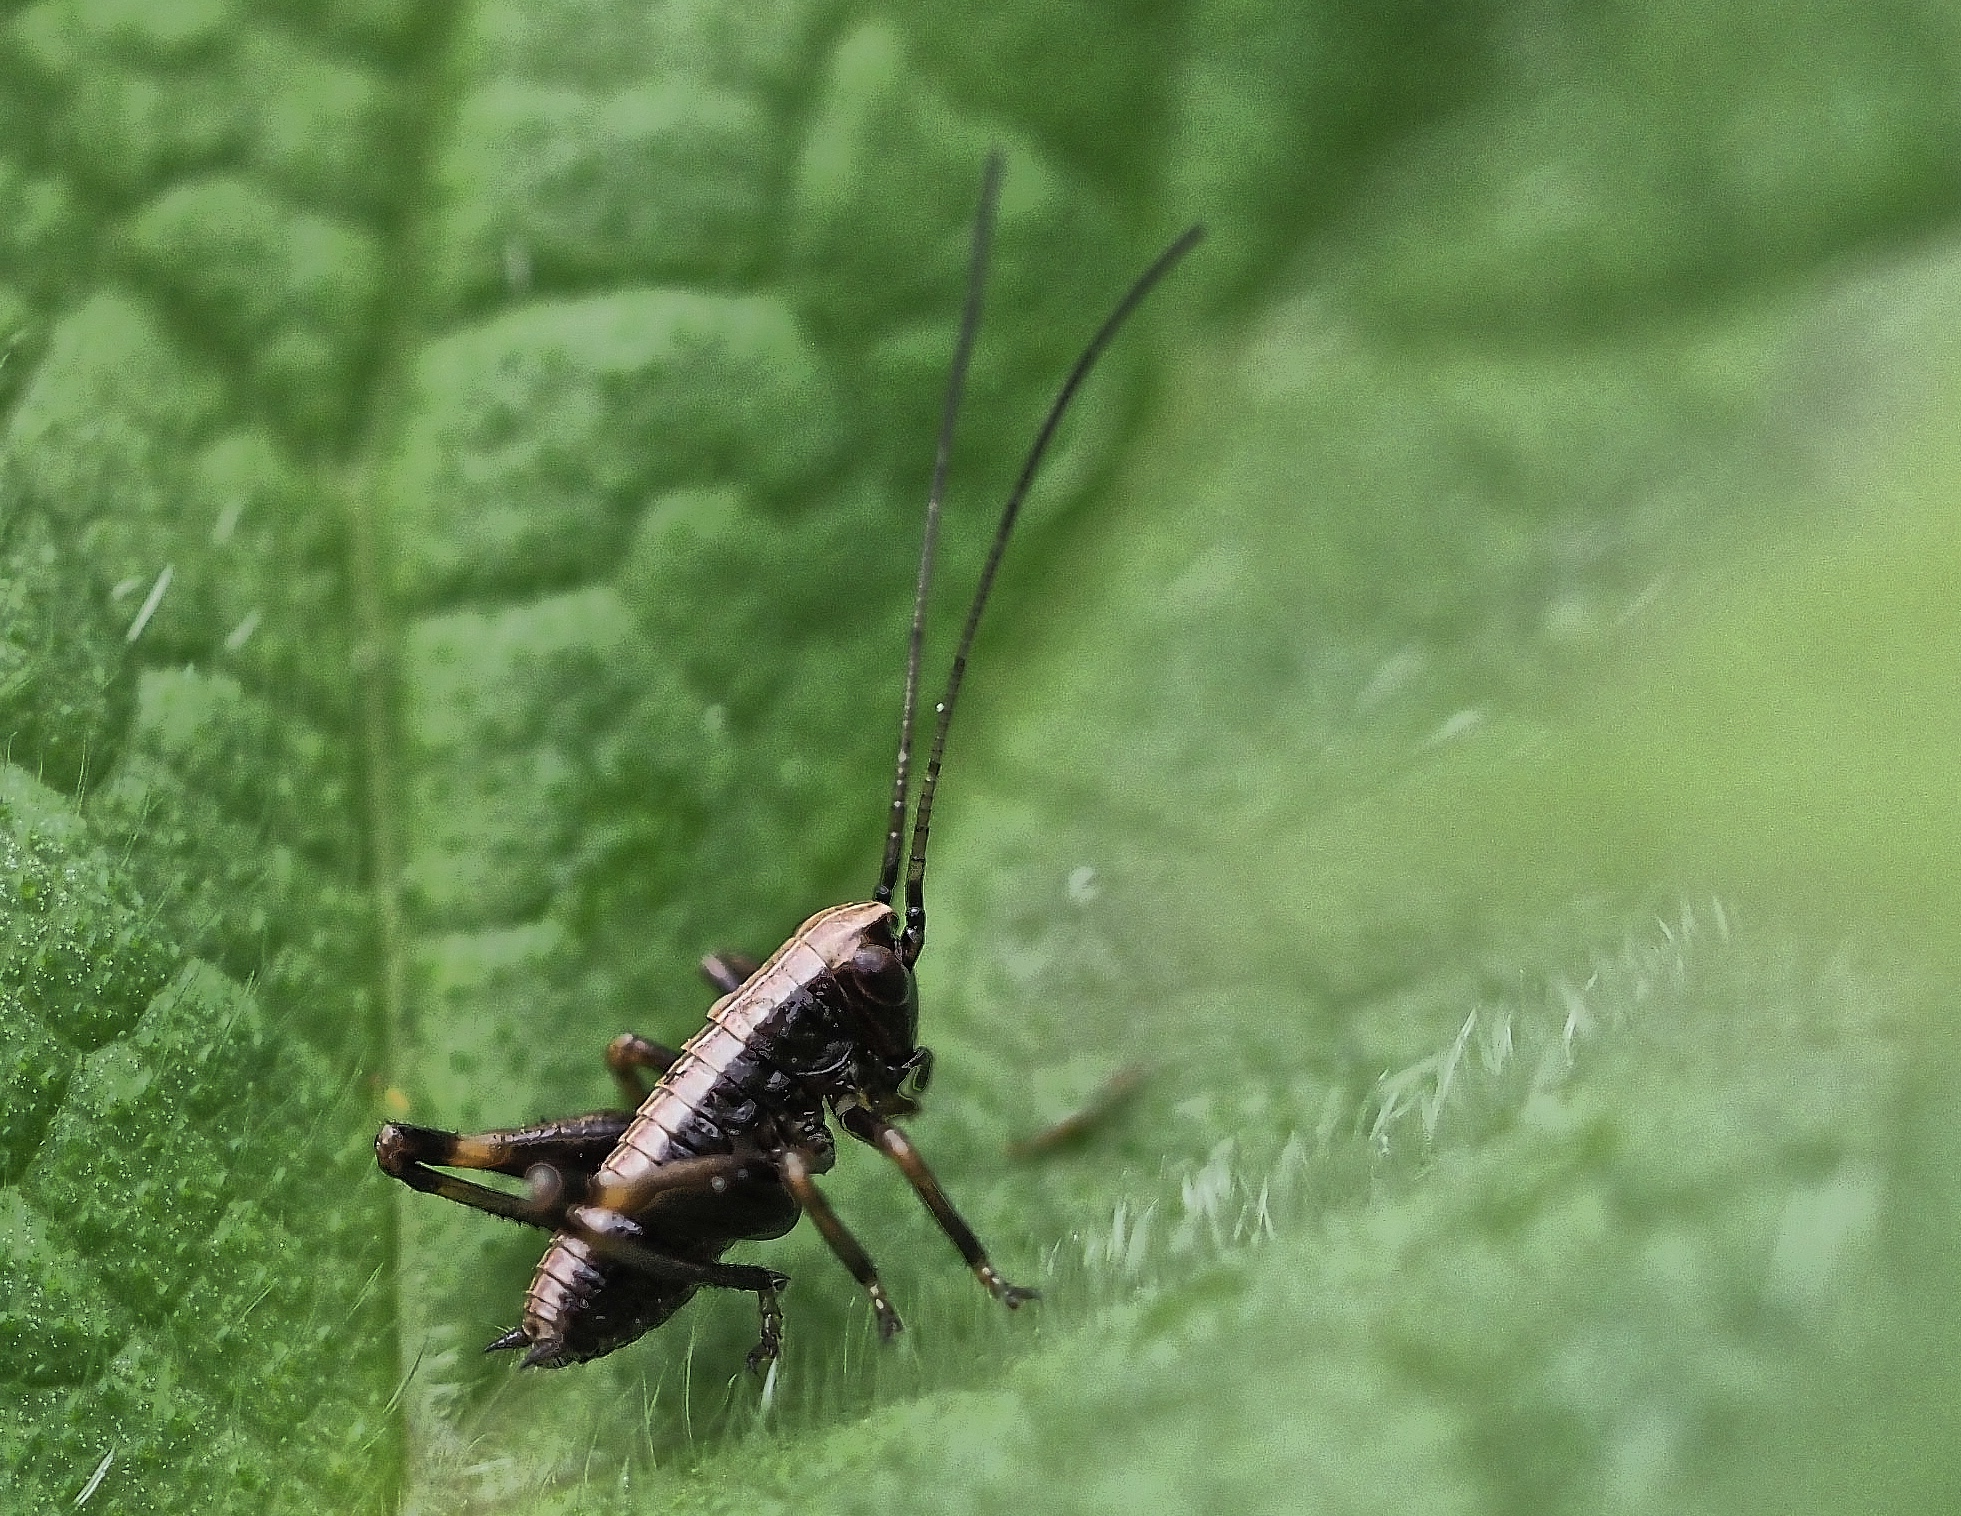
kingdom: Animalia
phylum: Arthropoda
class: Insecta
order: Orthoptera
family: Tettigoniidae
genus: Pholidoptera
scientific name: Pholidoptera griseoaptera
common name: Dark bush-cricket
